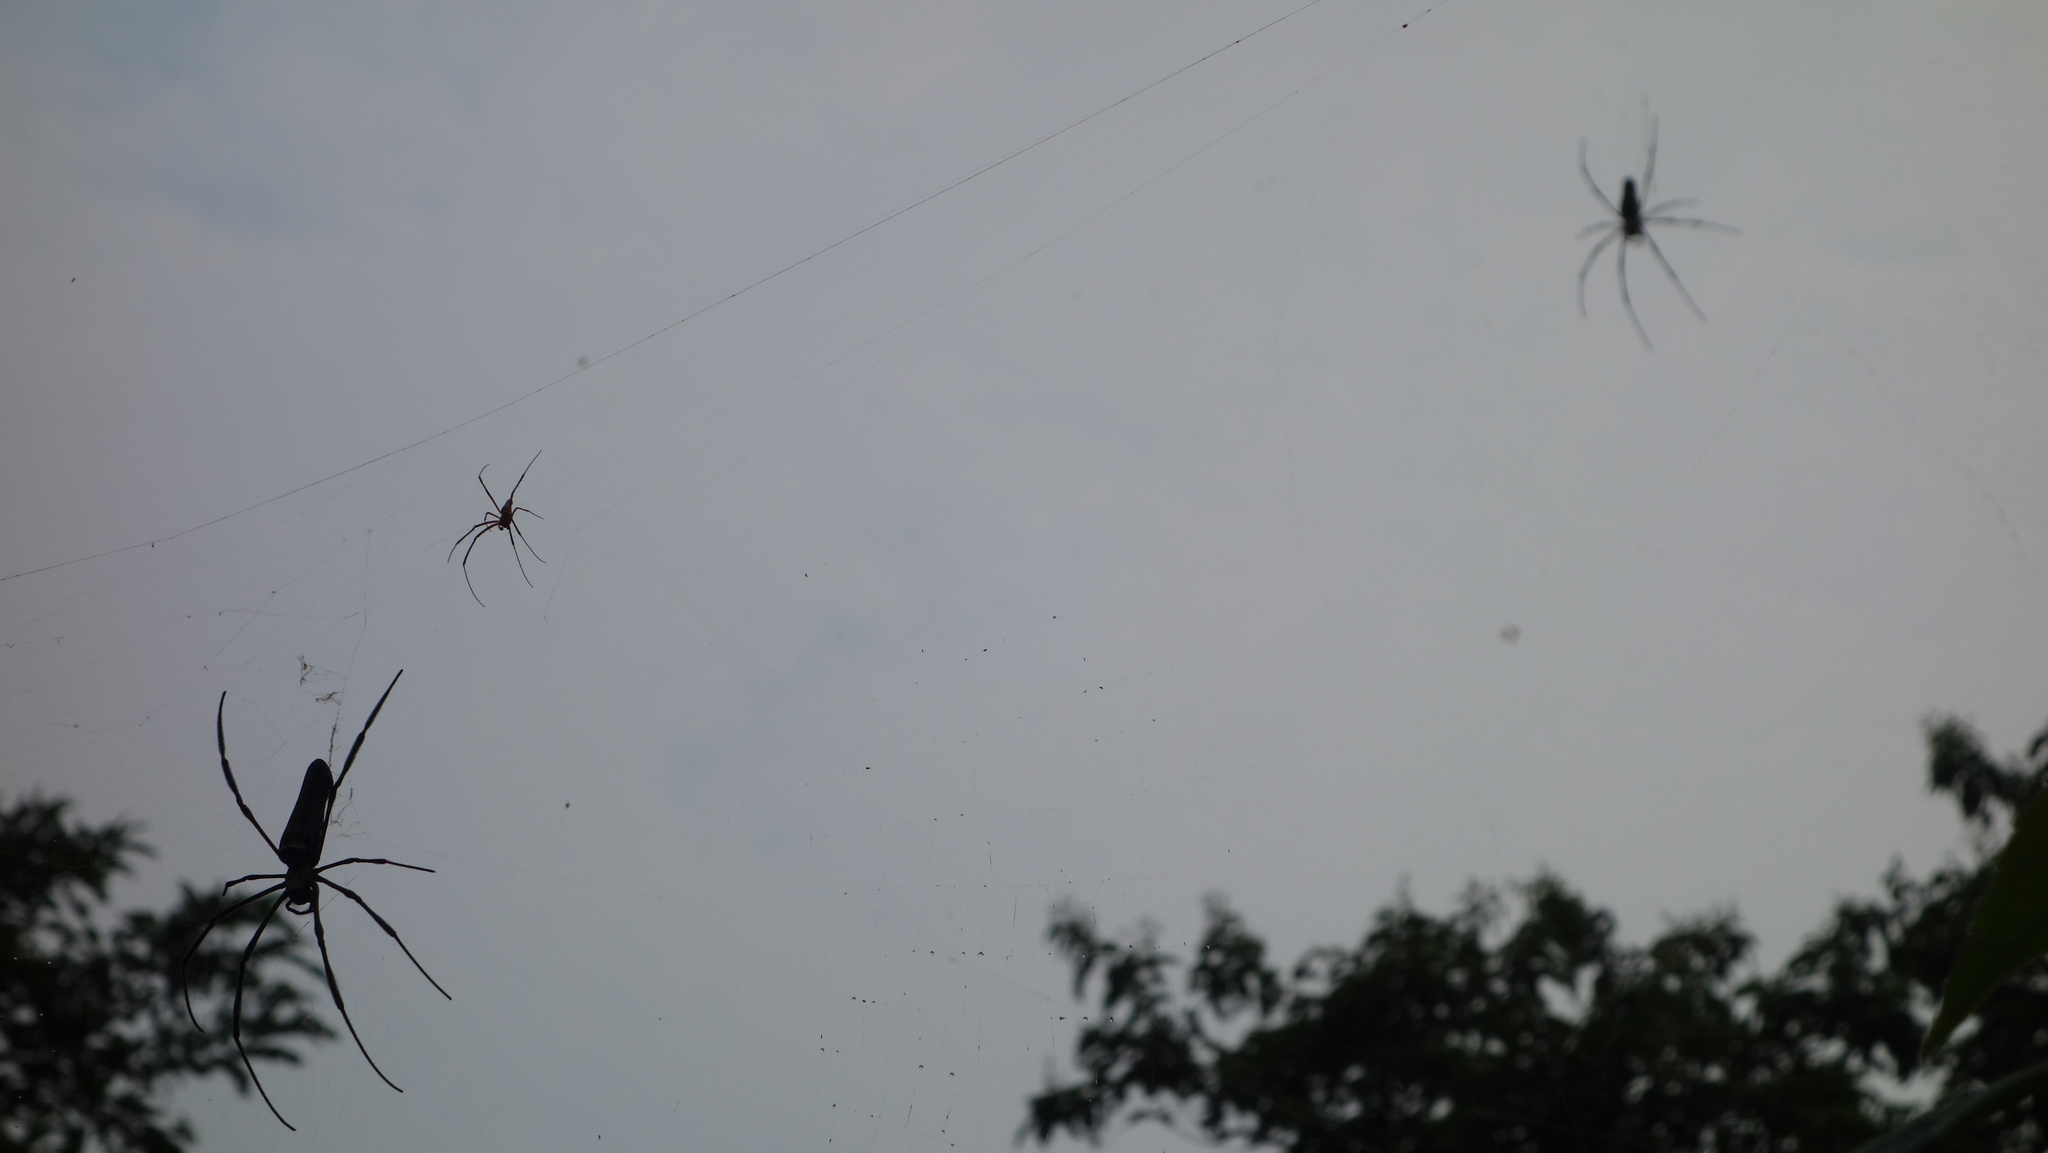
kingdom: Animalia
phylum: Arthropoda
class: Arachnida
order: Araneae
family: Araneidae
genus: Nephila
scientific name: Nephila pilipes
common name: Giant golden orb weaver
